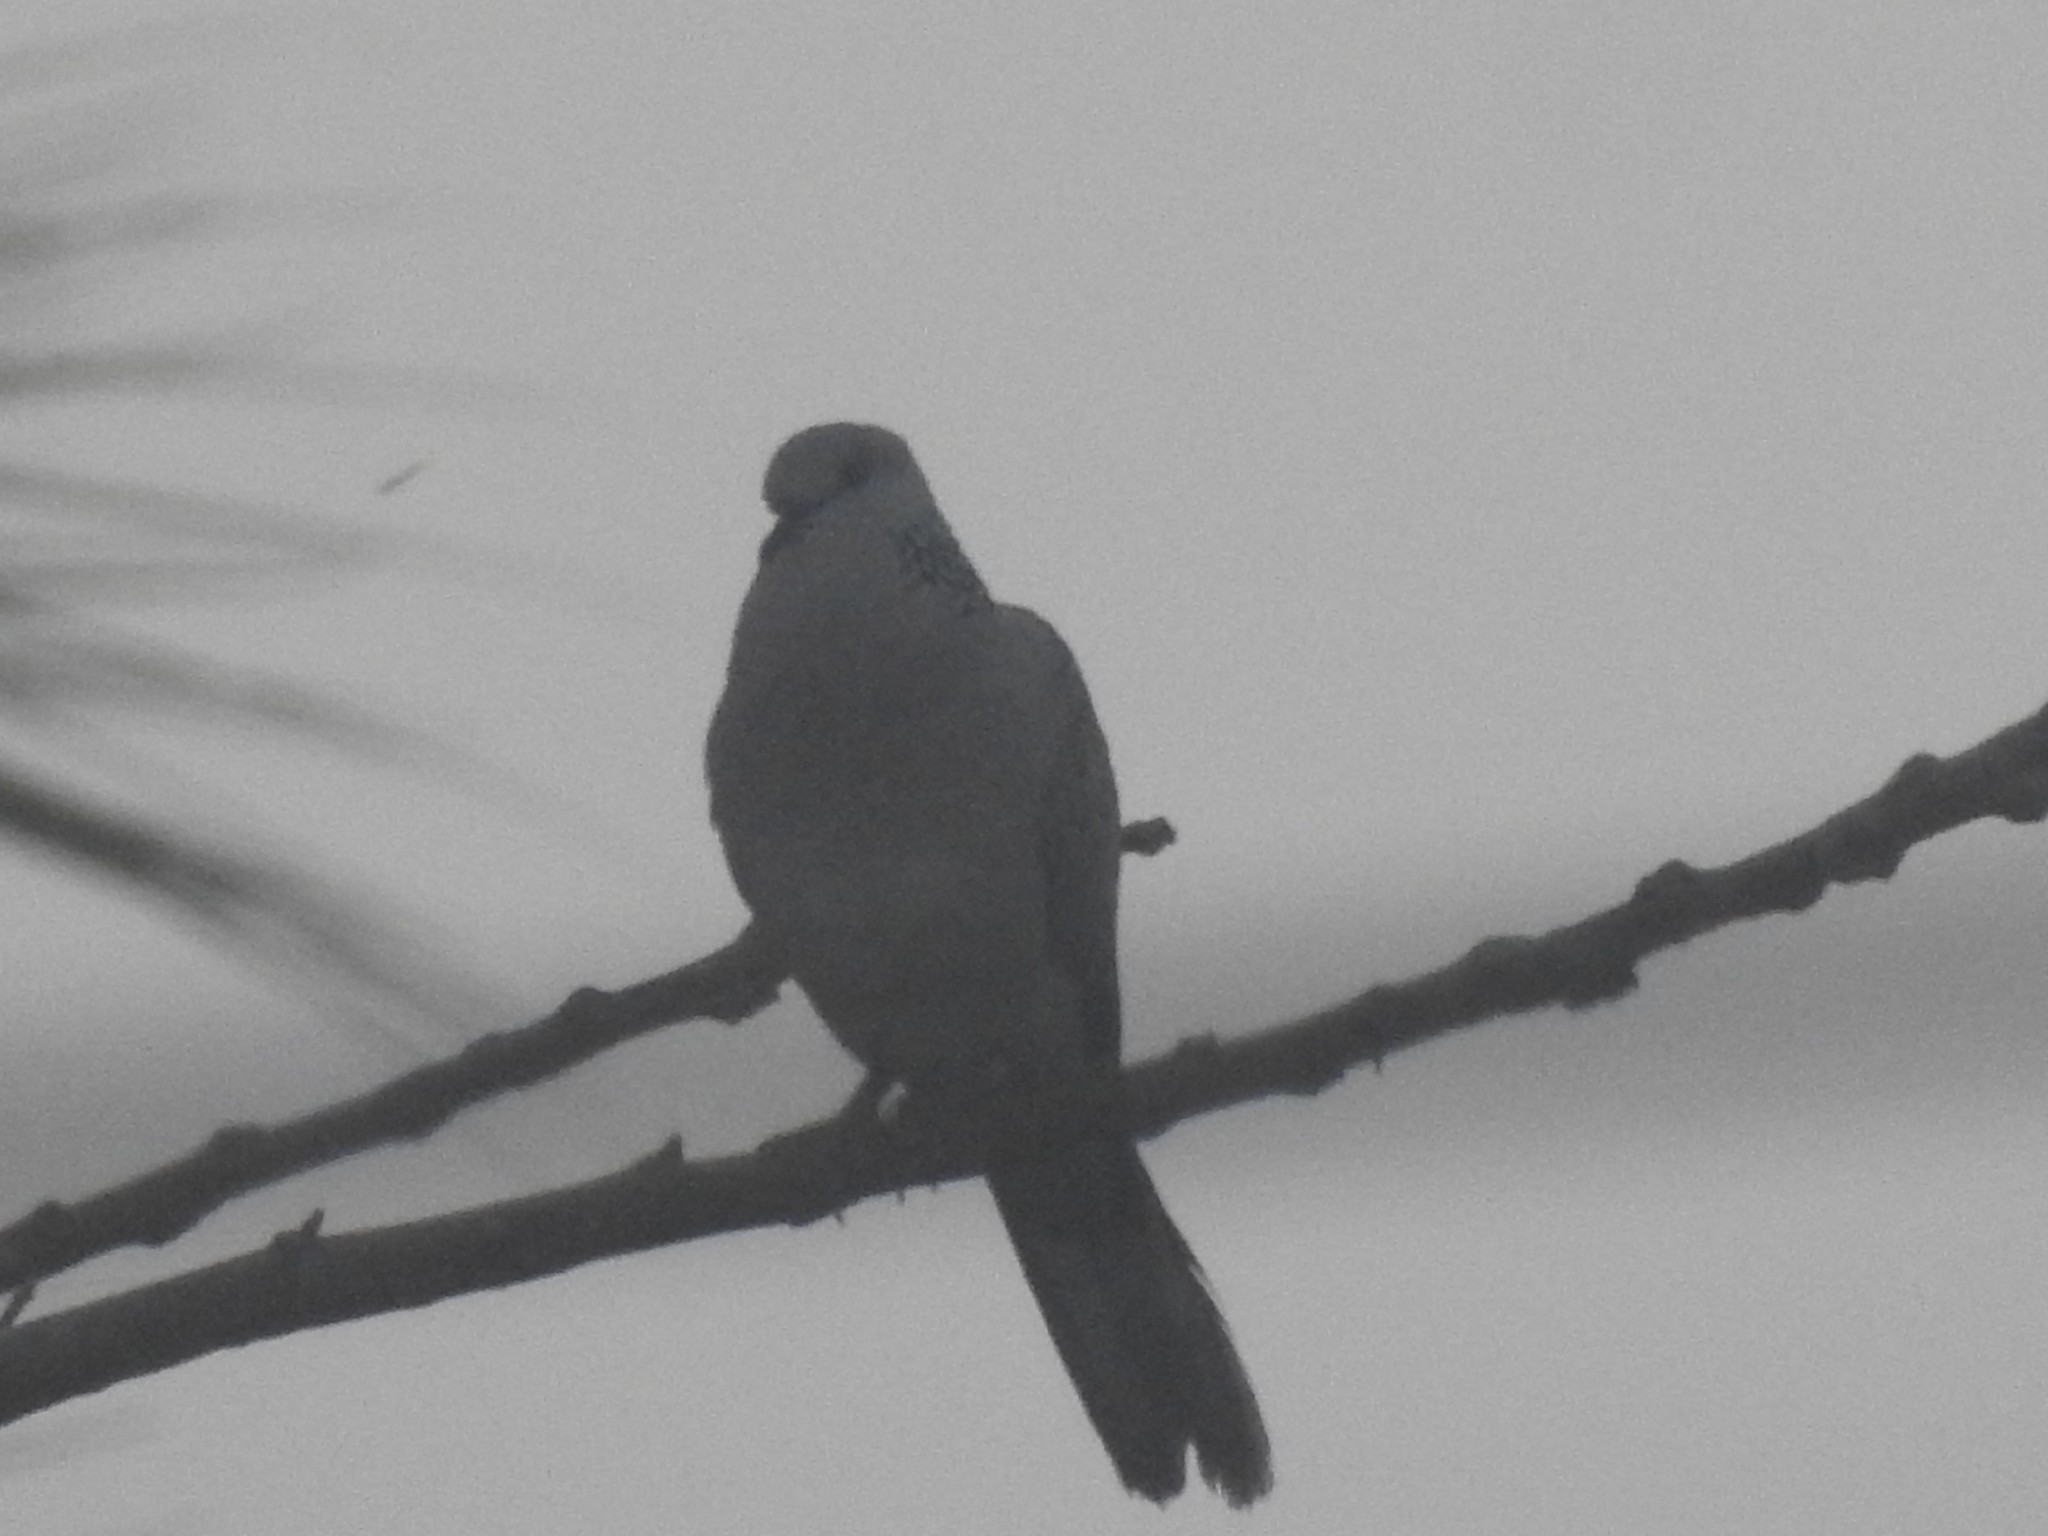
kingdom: Animalia
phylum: Chordata
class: Aves
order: Columbiformes
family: Columbidae
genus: Spilopelia
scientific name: Spilopelia chinensis
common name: Spotted dove
